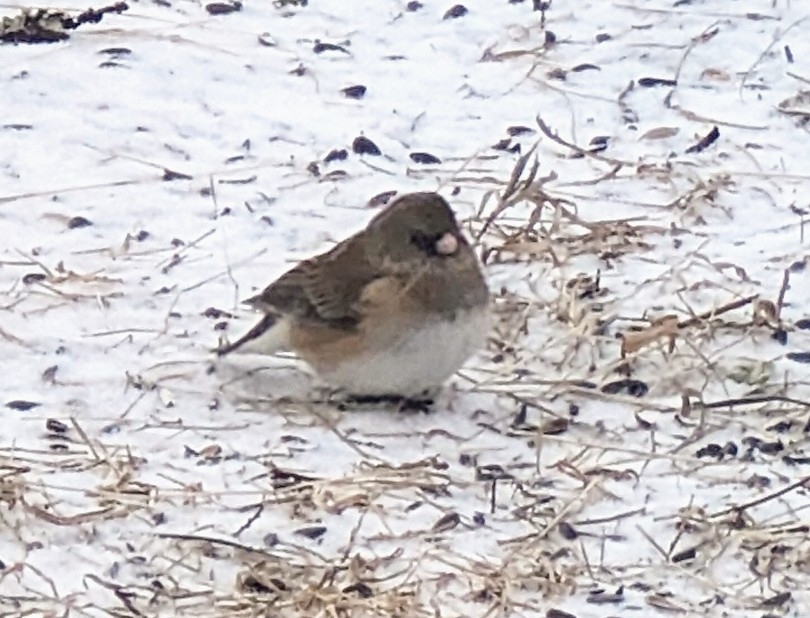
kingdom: Animalia
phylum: Chordata
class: Aves
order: Passeriformes
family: Passerellidae
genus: Junco
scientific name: Junco hyemalis
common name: Dark-eyed junco
